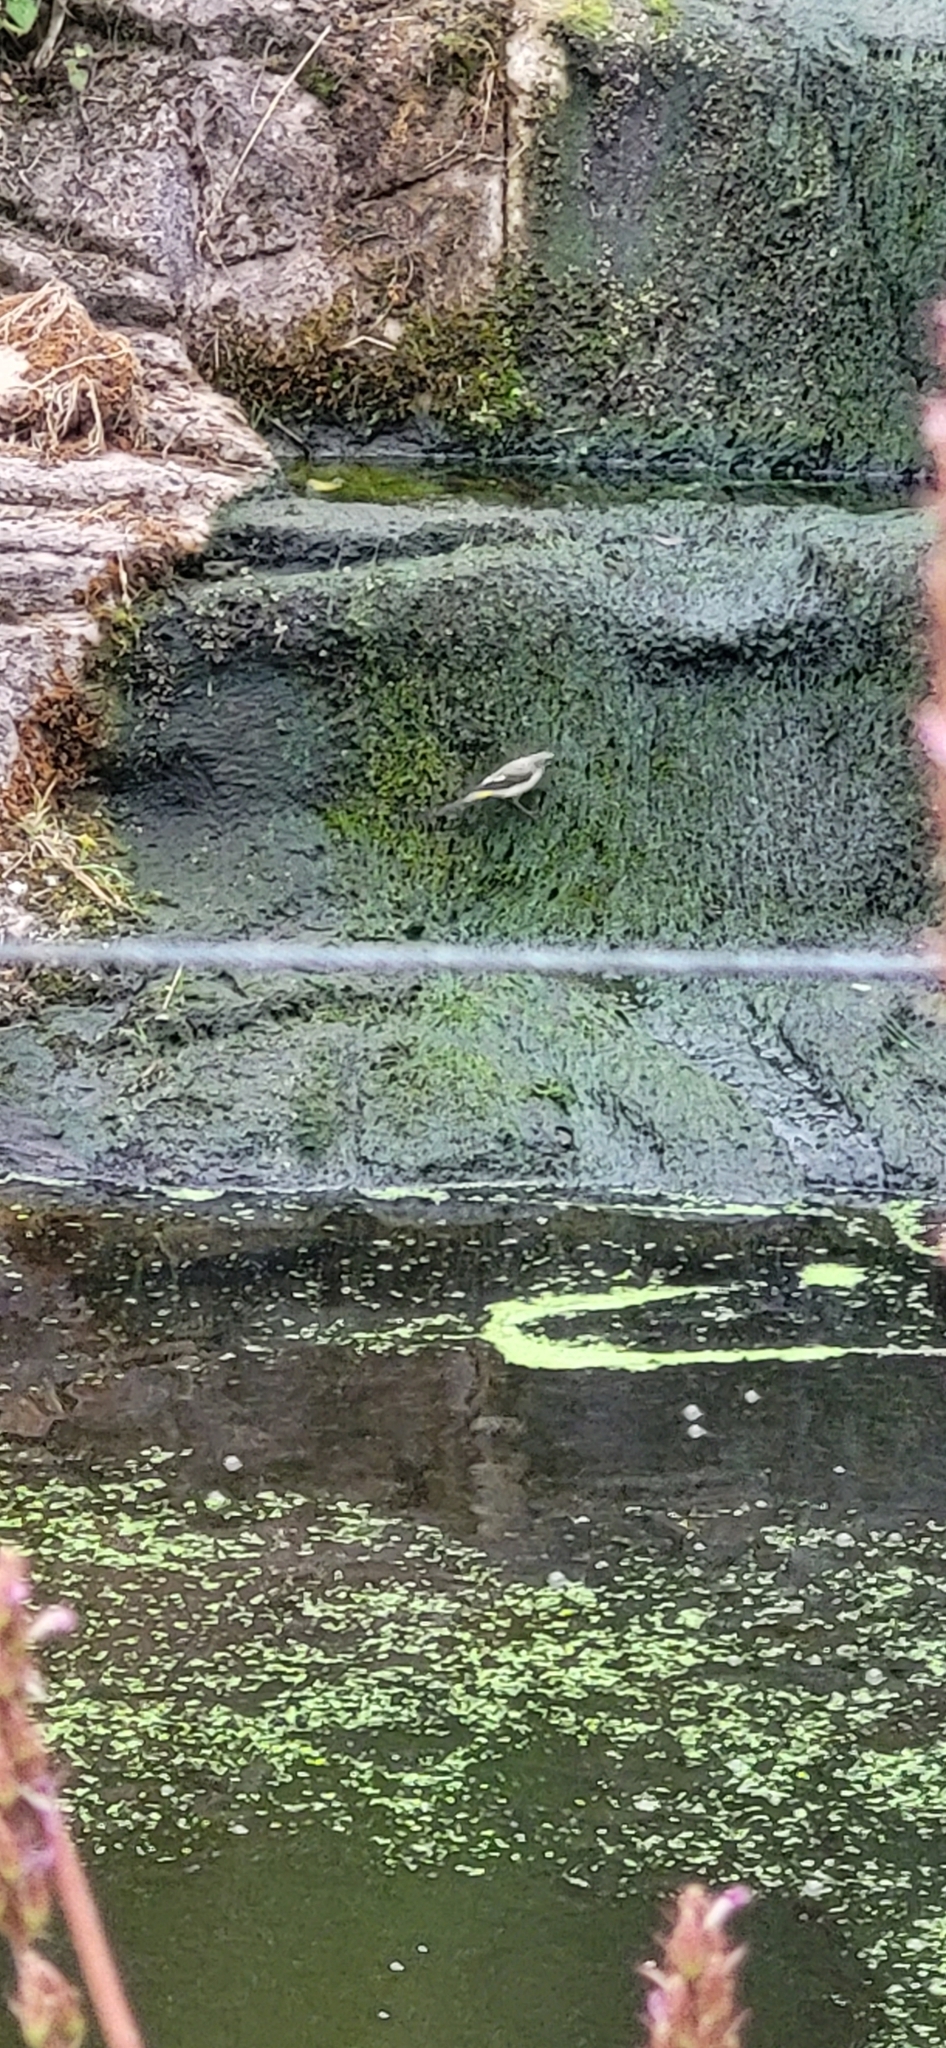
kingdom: Animalia
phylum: Chordata
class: Aves
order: Passeriformes
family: Motacillidae
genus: Motacilla
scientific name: Motacilla cinerea
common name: Grey wagtail
